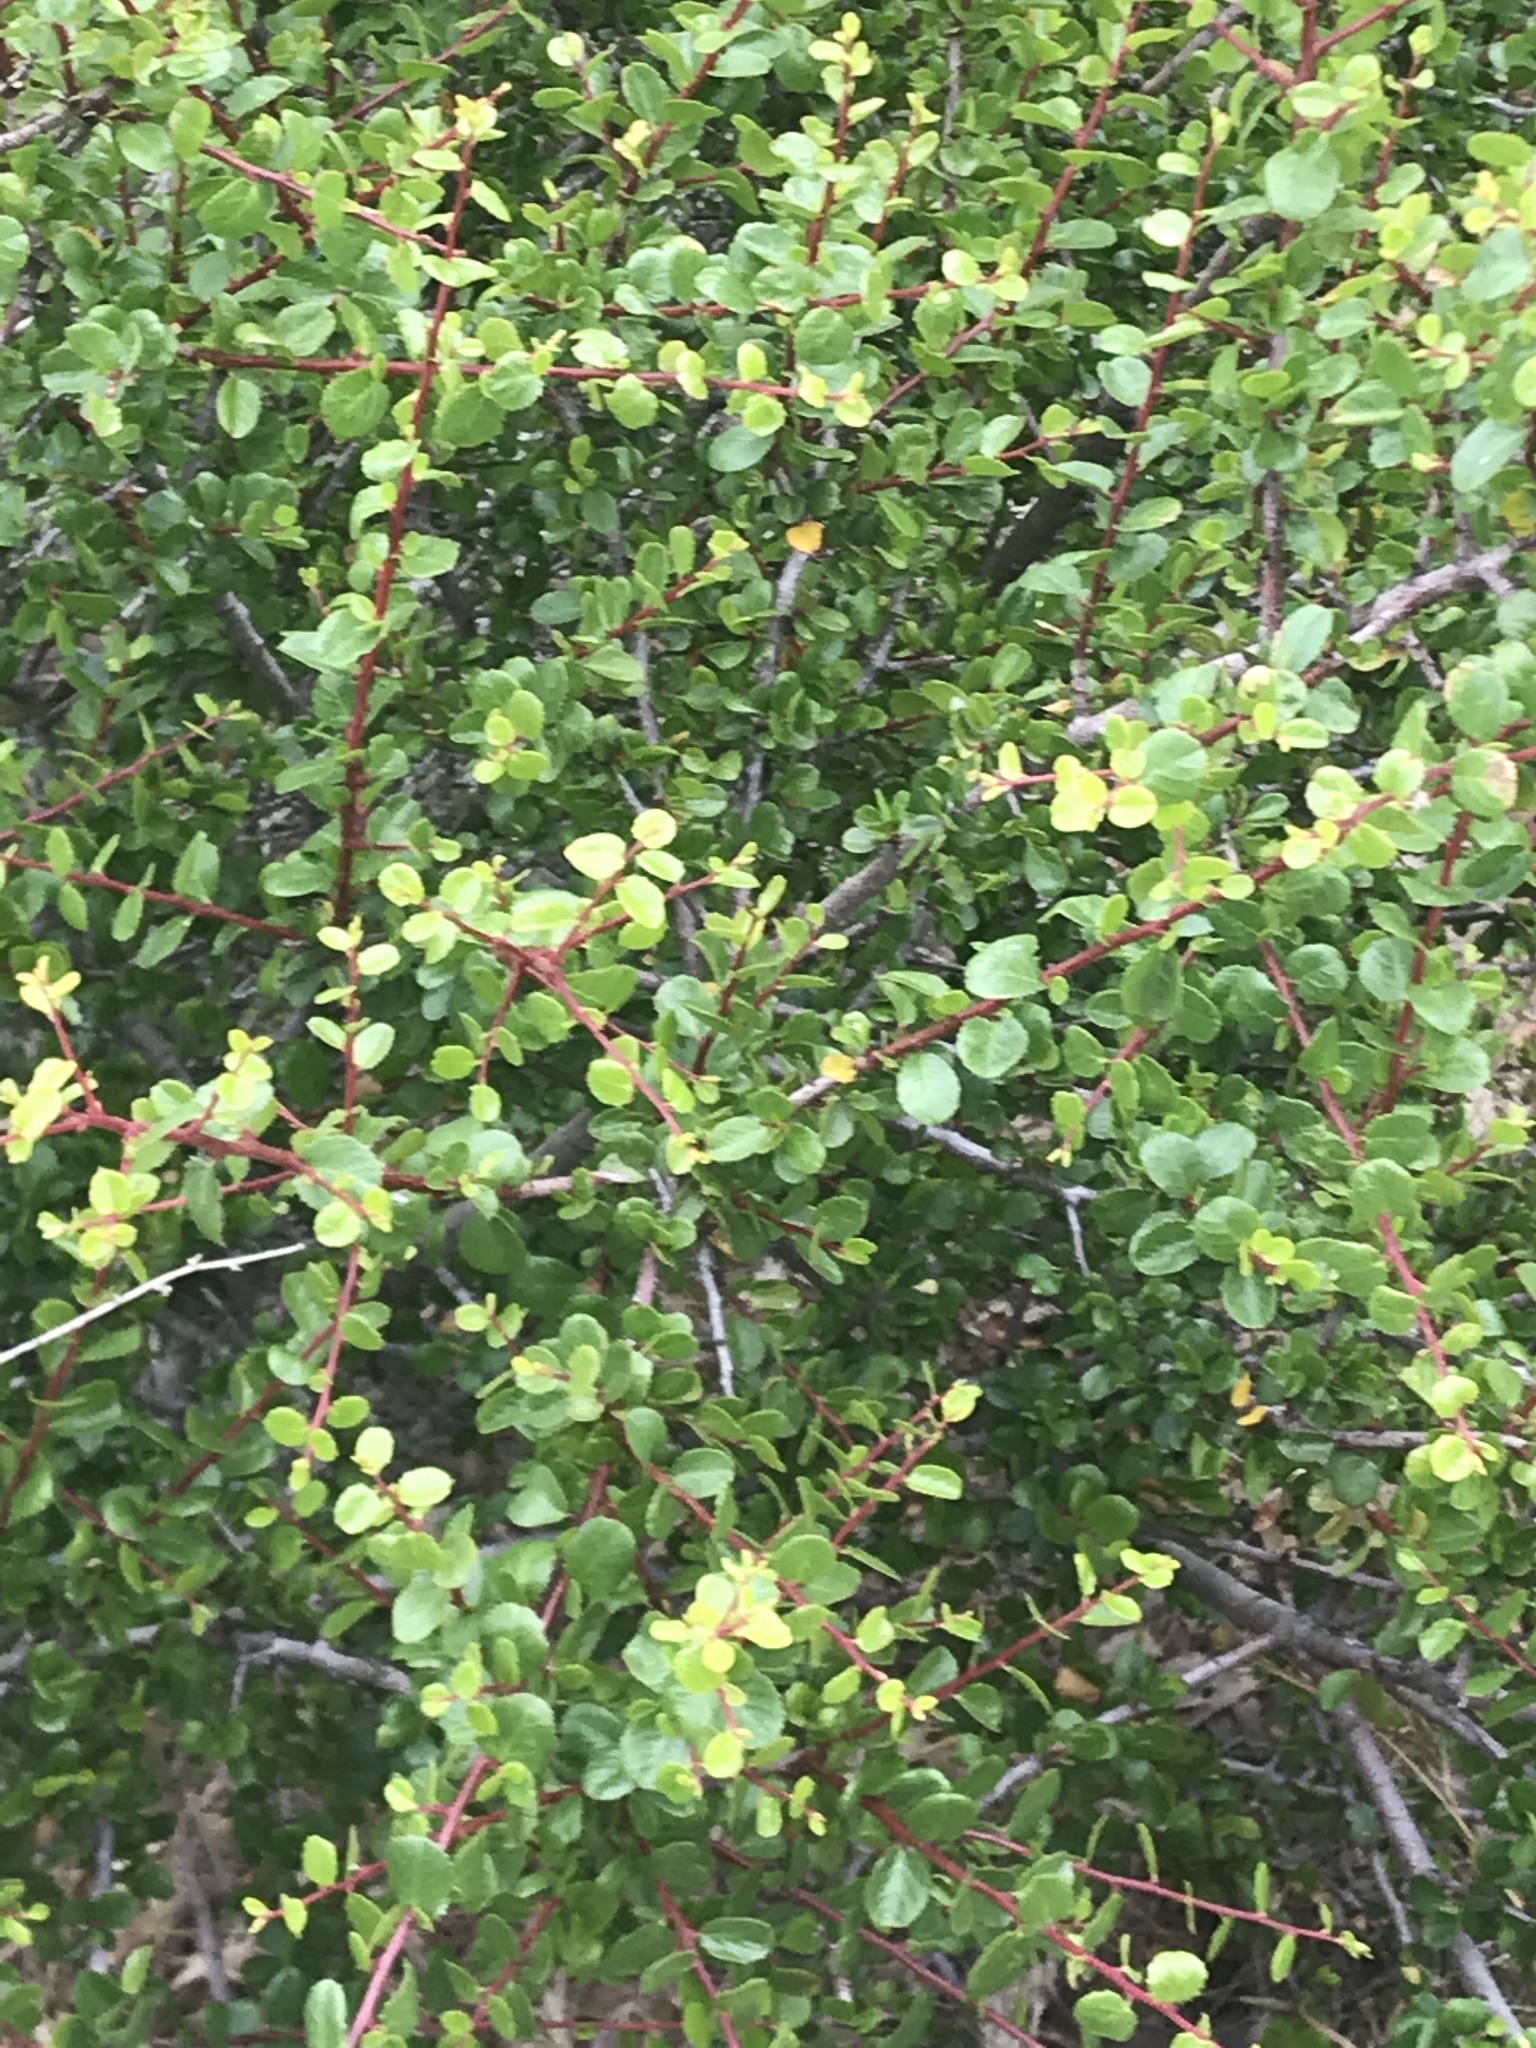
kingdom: Plantae
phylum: Tracheophyta
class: Magnoliopsida
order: Rosales
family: Rhamnaceae
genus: Endotropis
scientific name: Endotropis crocea
